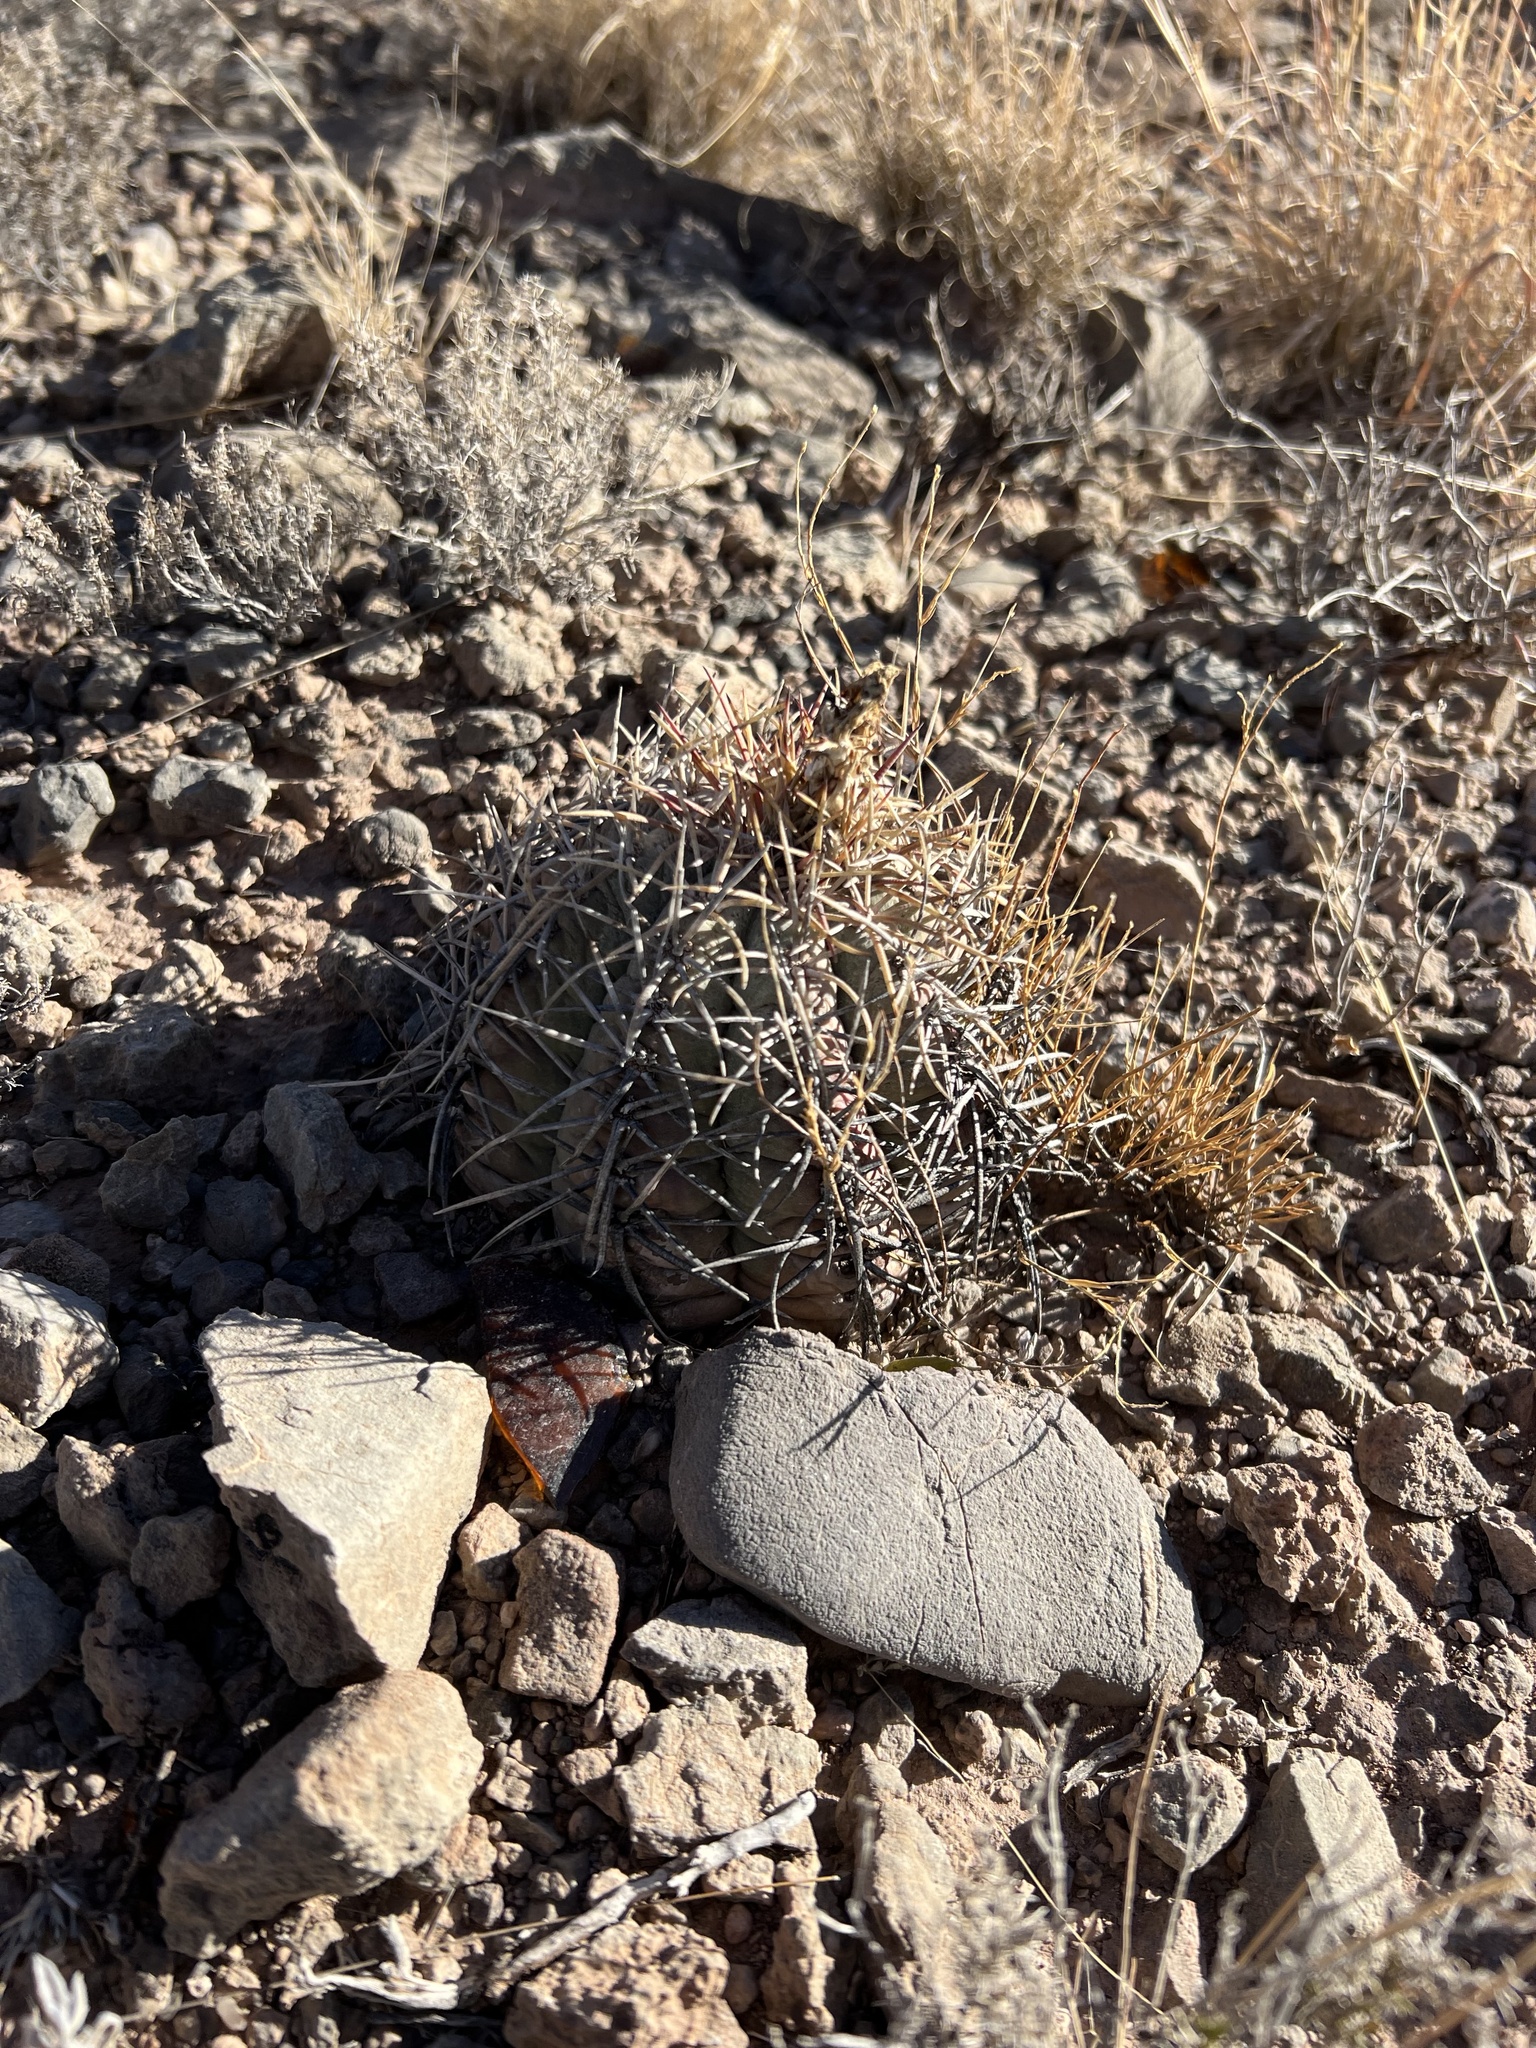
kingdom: Plantae
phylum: Tracheophyta
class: Magnoliopsida
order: Caryophyllales
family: Cactaceae
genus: Echinocactus
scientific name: Echinocactus horizonthalonius
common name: Devilshead
